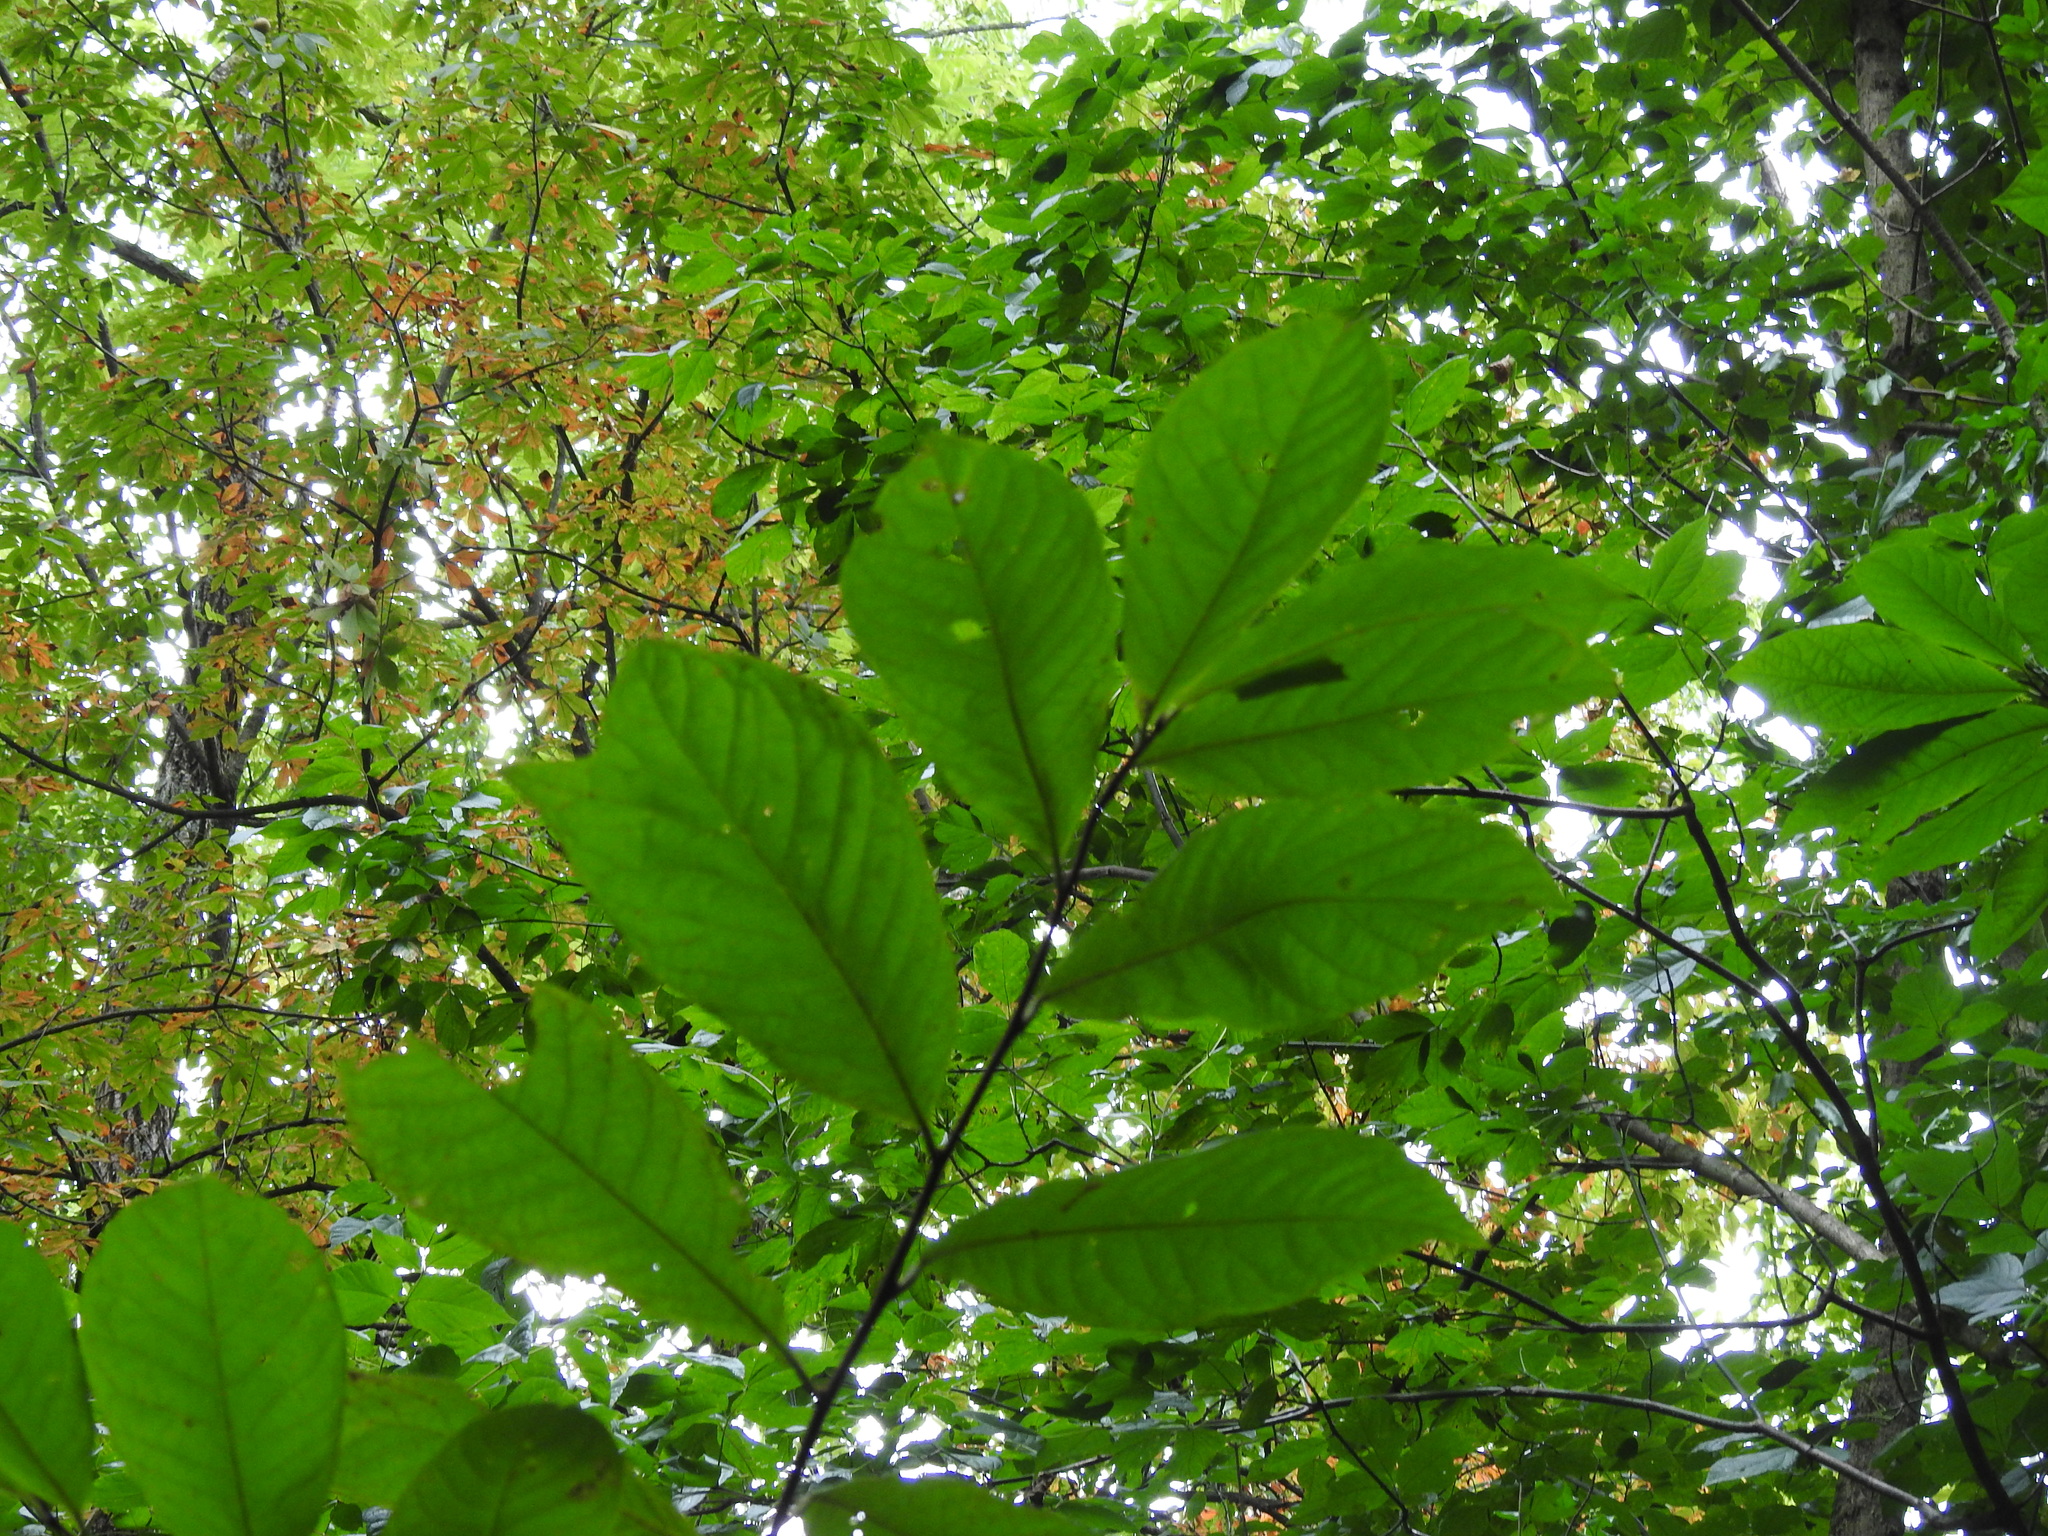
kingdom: Plantae
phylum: Tracheophyta
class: Magnoliopsida
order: Magnoliales
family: Annonaceae
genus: Asimina
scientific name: Asimina triloba
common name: Dog-banana
